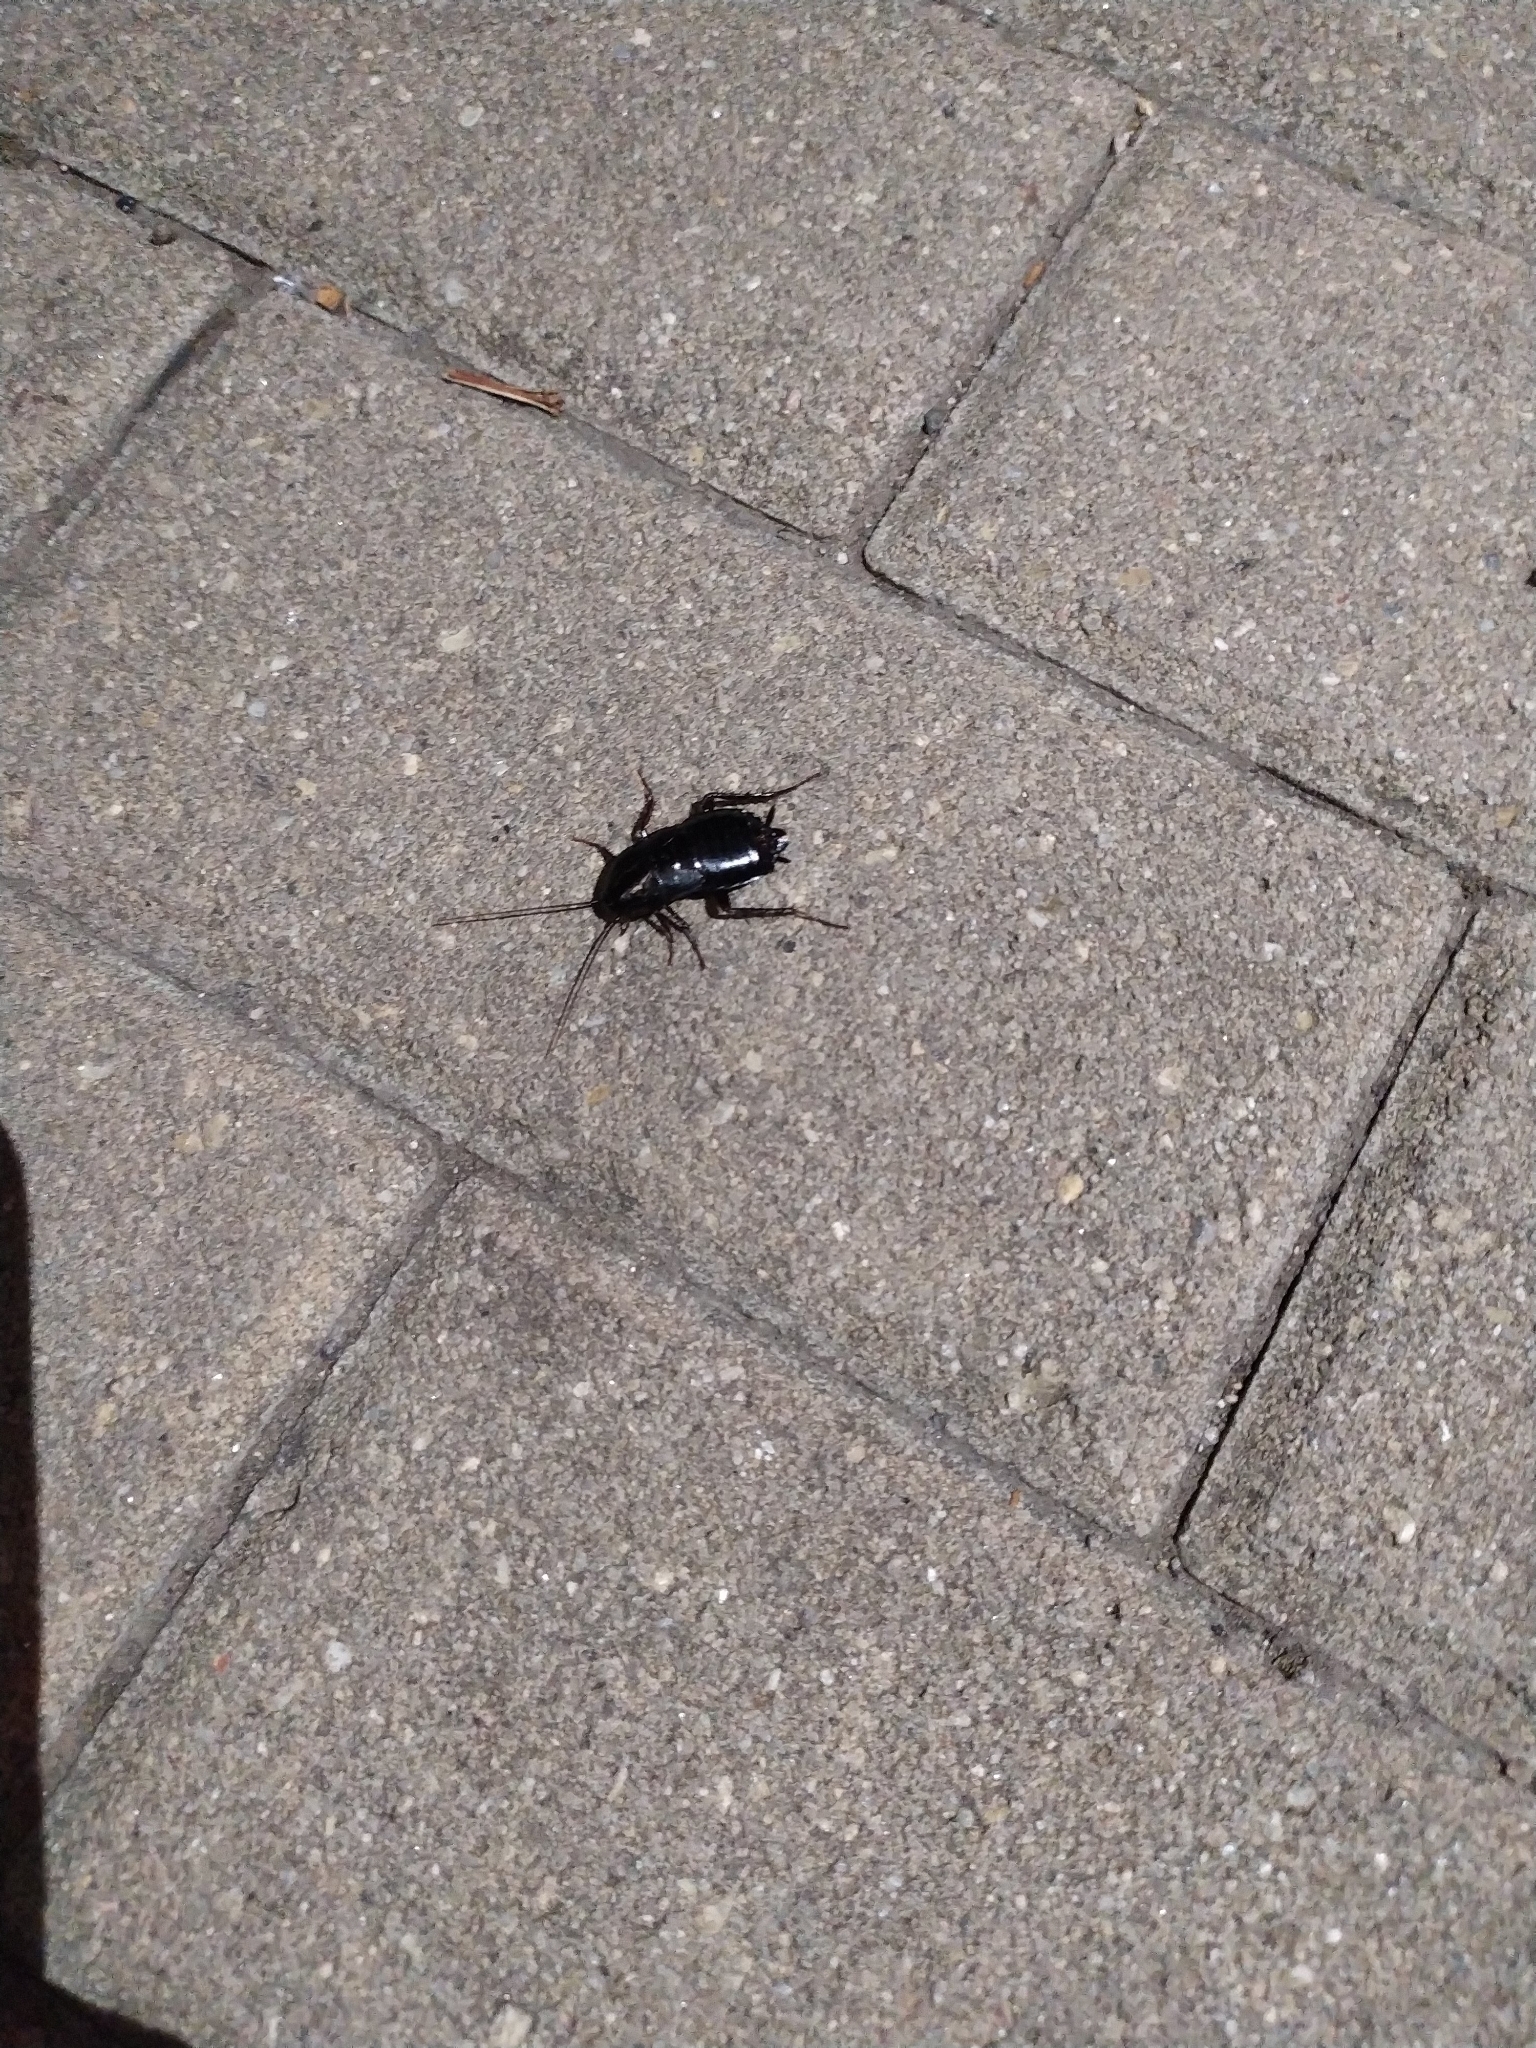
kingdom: Animalia
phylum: Arthropoda
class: Insecta
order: Blattodea
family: Blattidae
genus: Blatta
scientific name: Blatta orientalis
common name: Oriental cockroach
